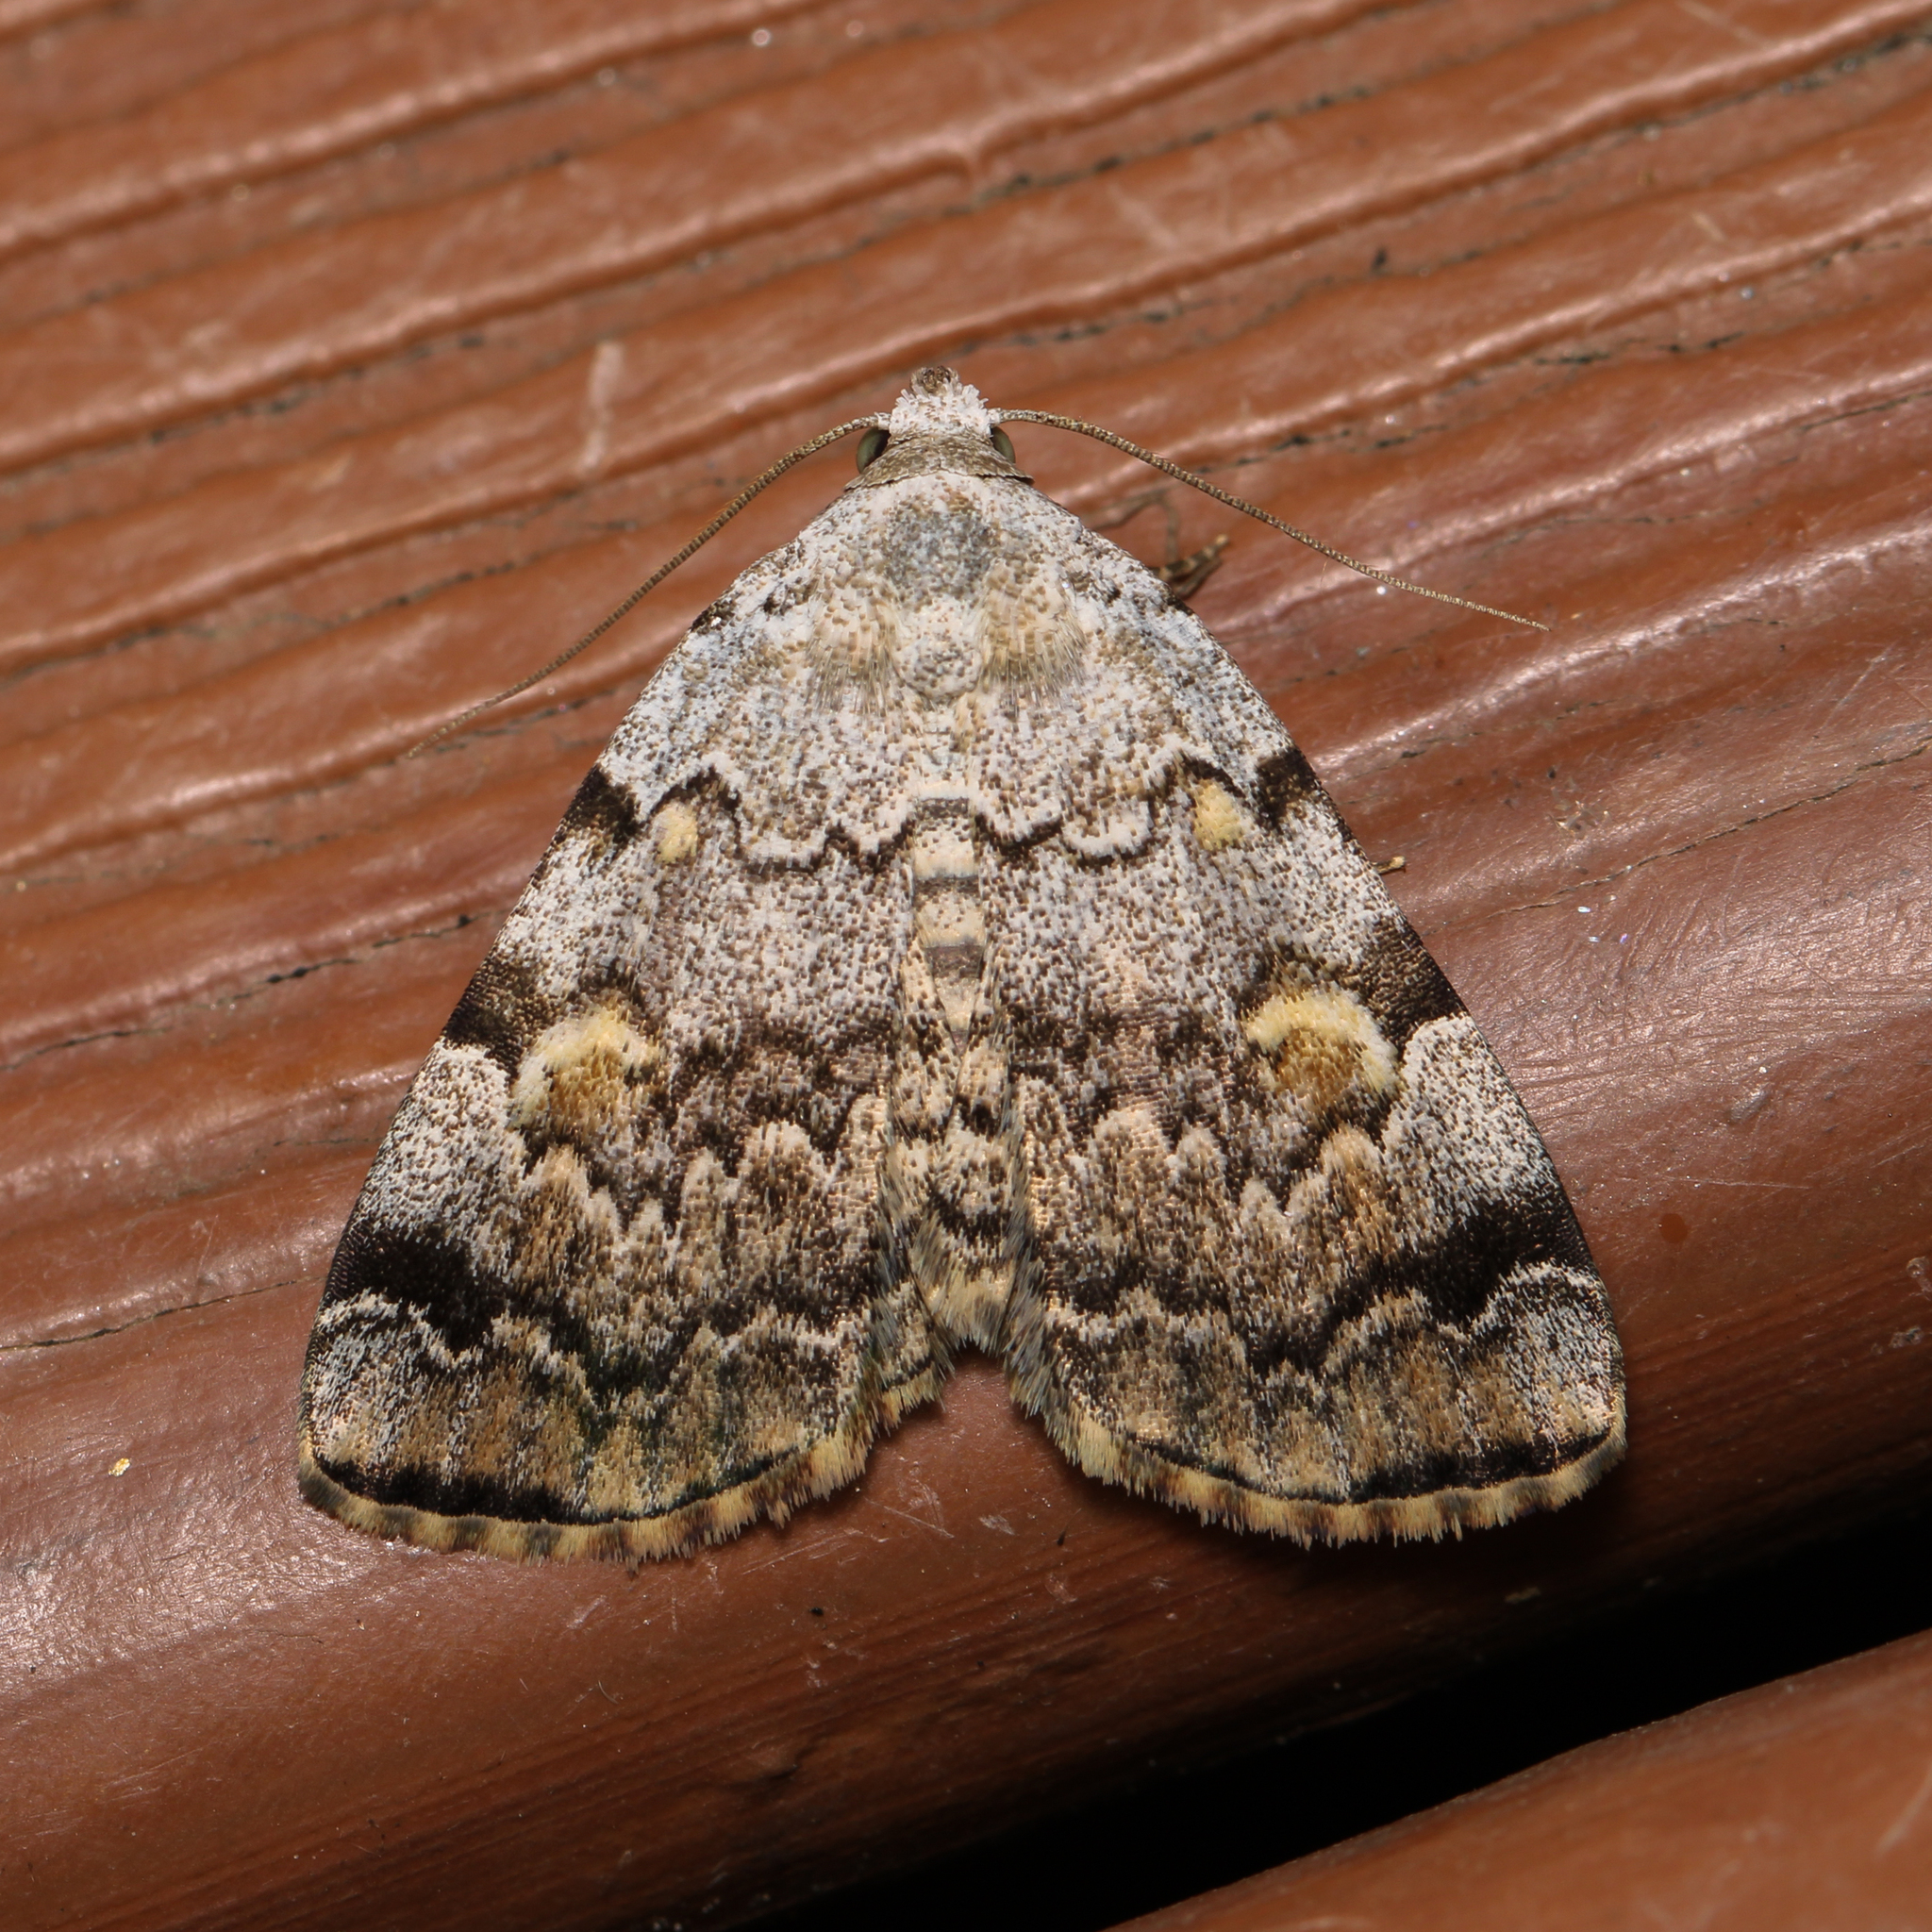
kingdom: Animalia
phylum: Arthropoda
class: Insecta
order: Lepidoptera
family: Erebidae
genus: Idia
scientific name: Idia americalis
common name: American idia moth
